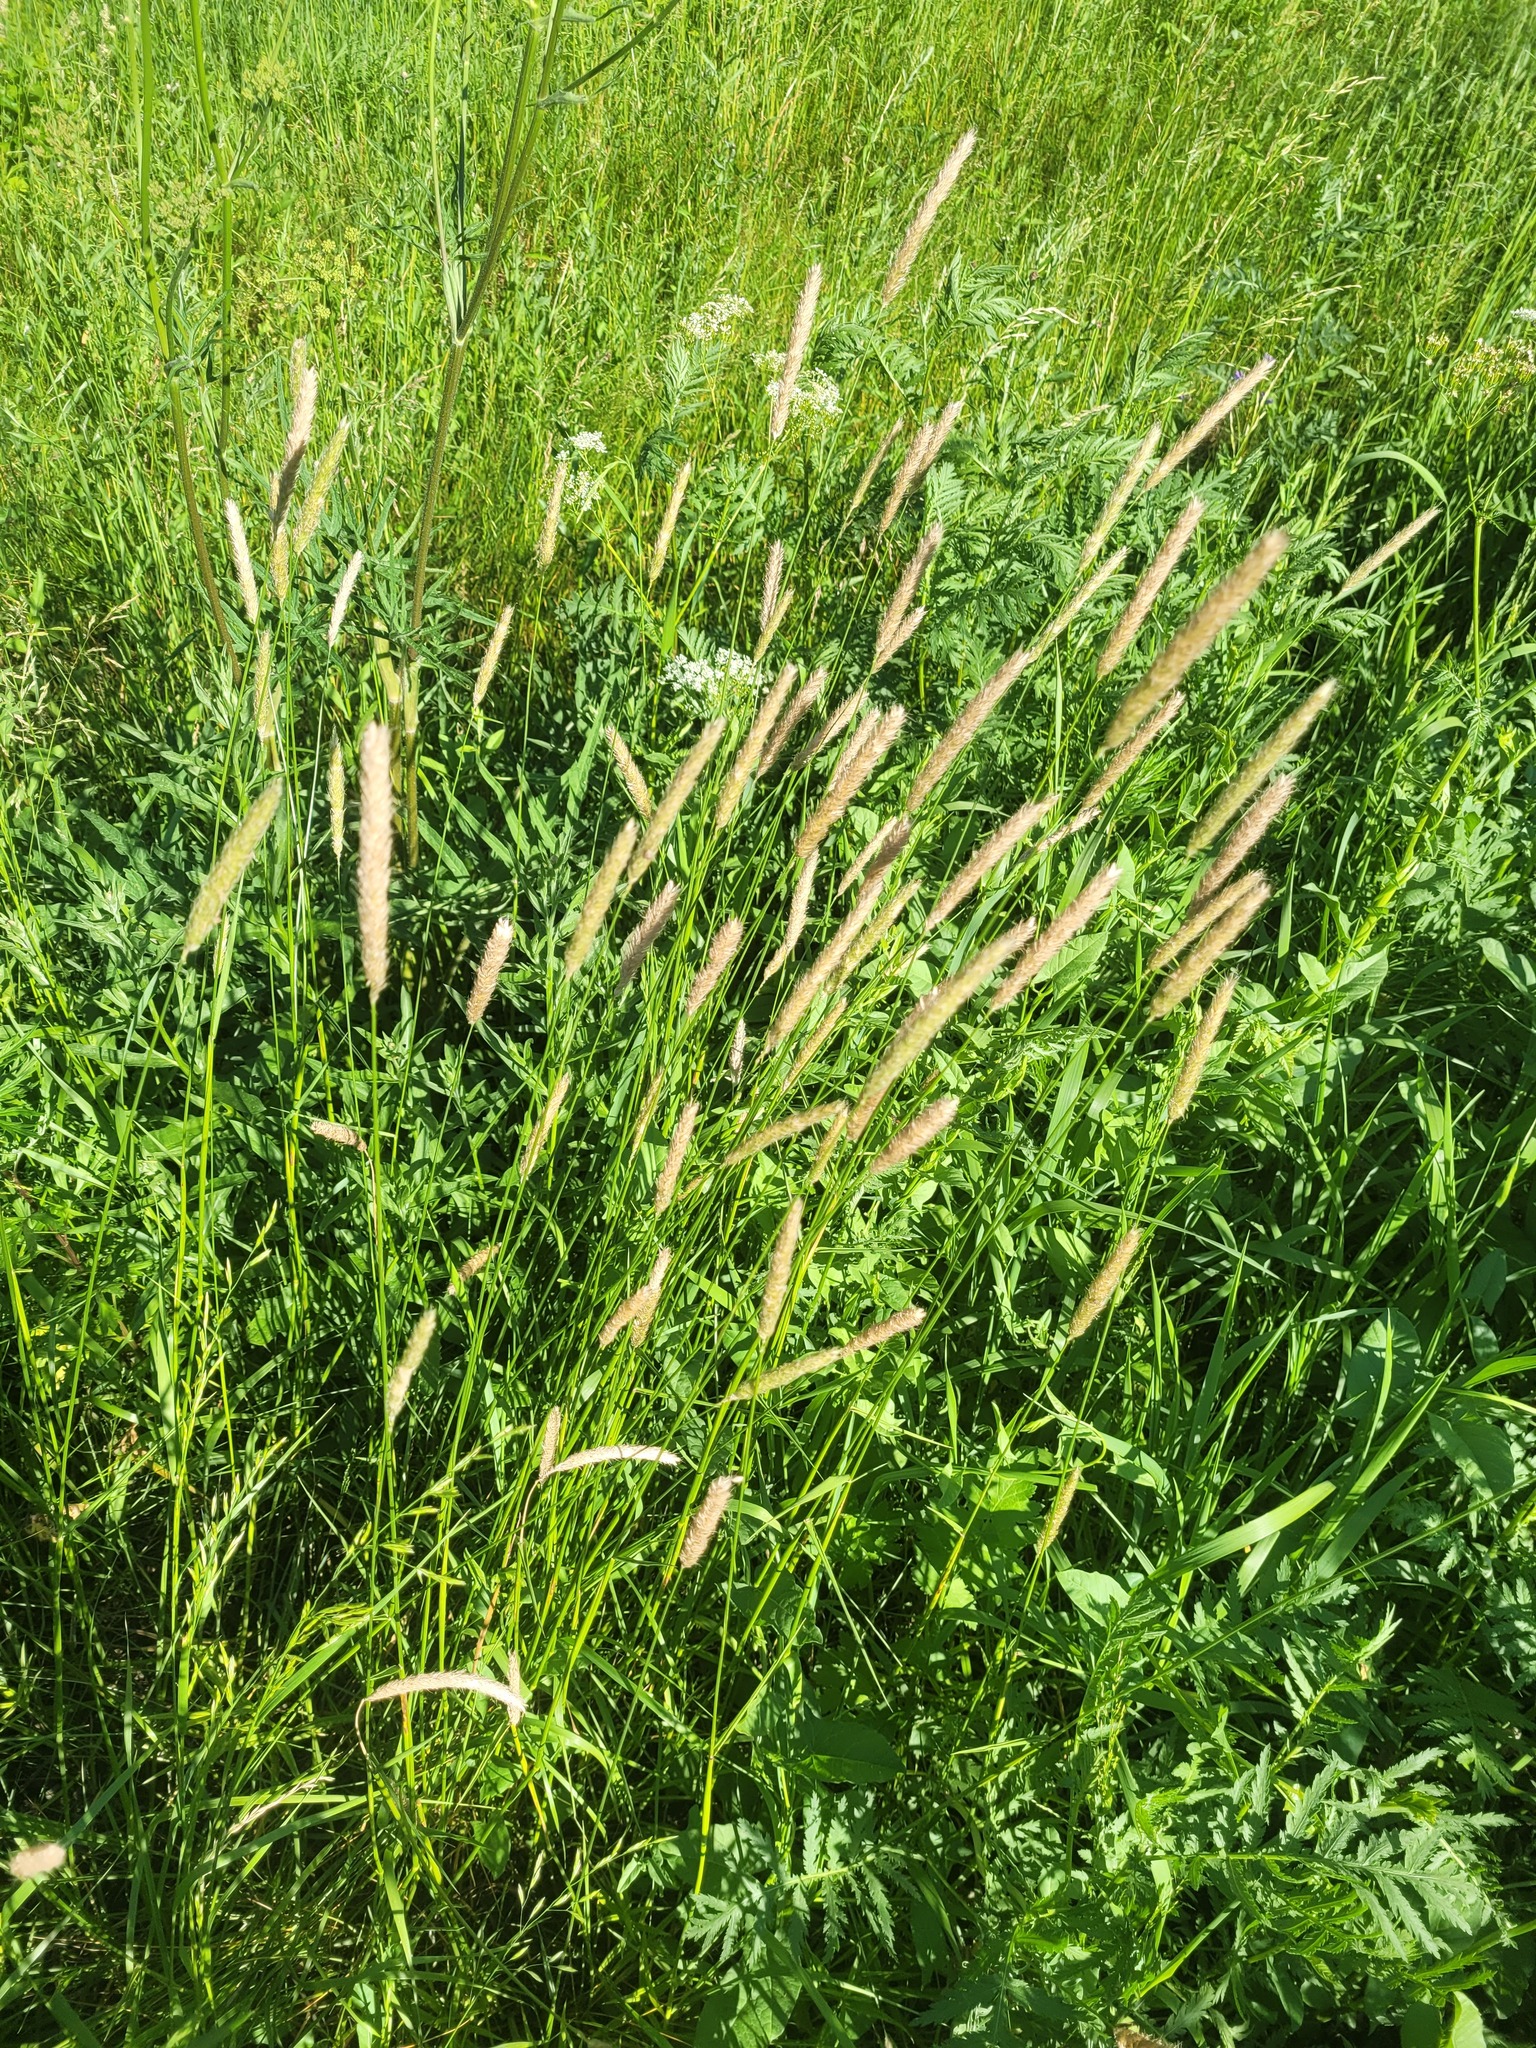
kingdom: Plantae
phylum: Tracheophyta
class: Liliopsida
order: Poales
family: Poaceae
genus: Alopecurus
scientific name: Alopecurus pratensis
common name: Meadow foxtail
